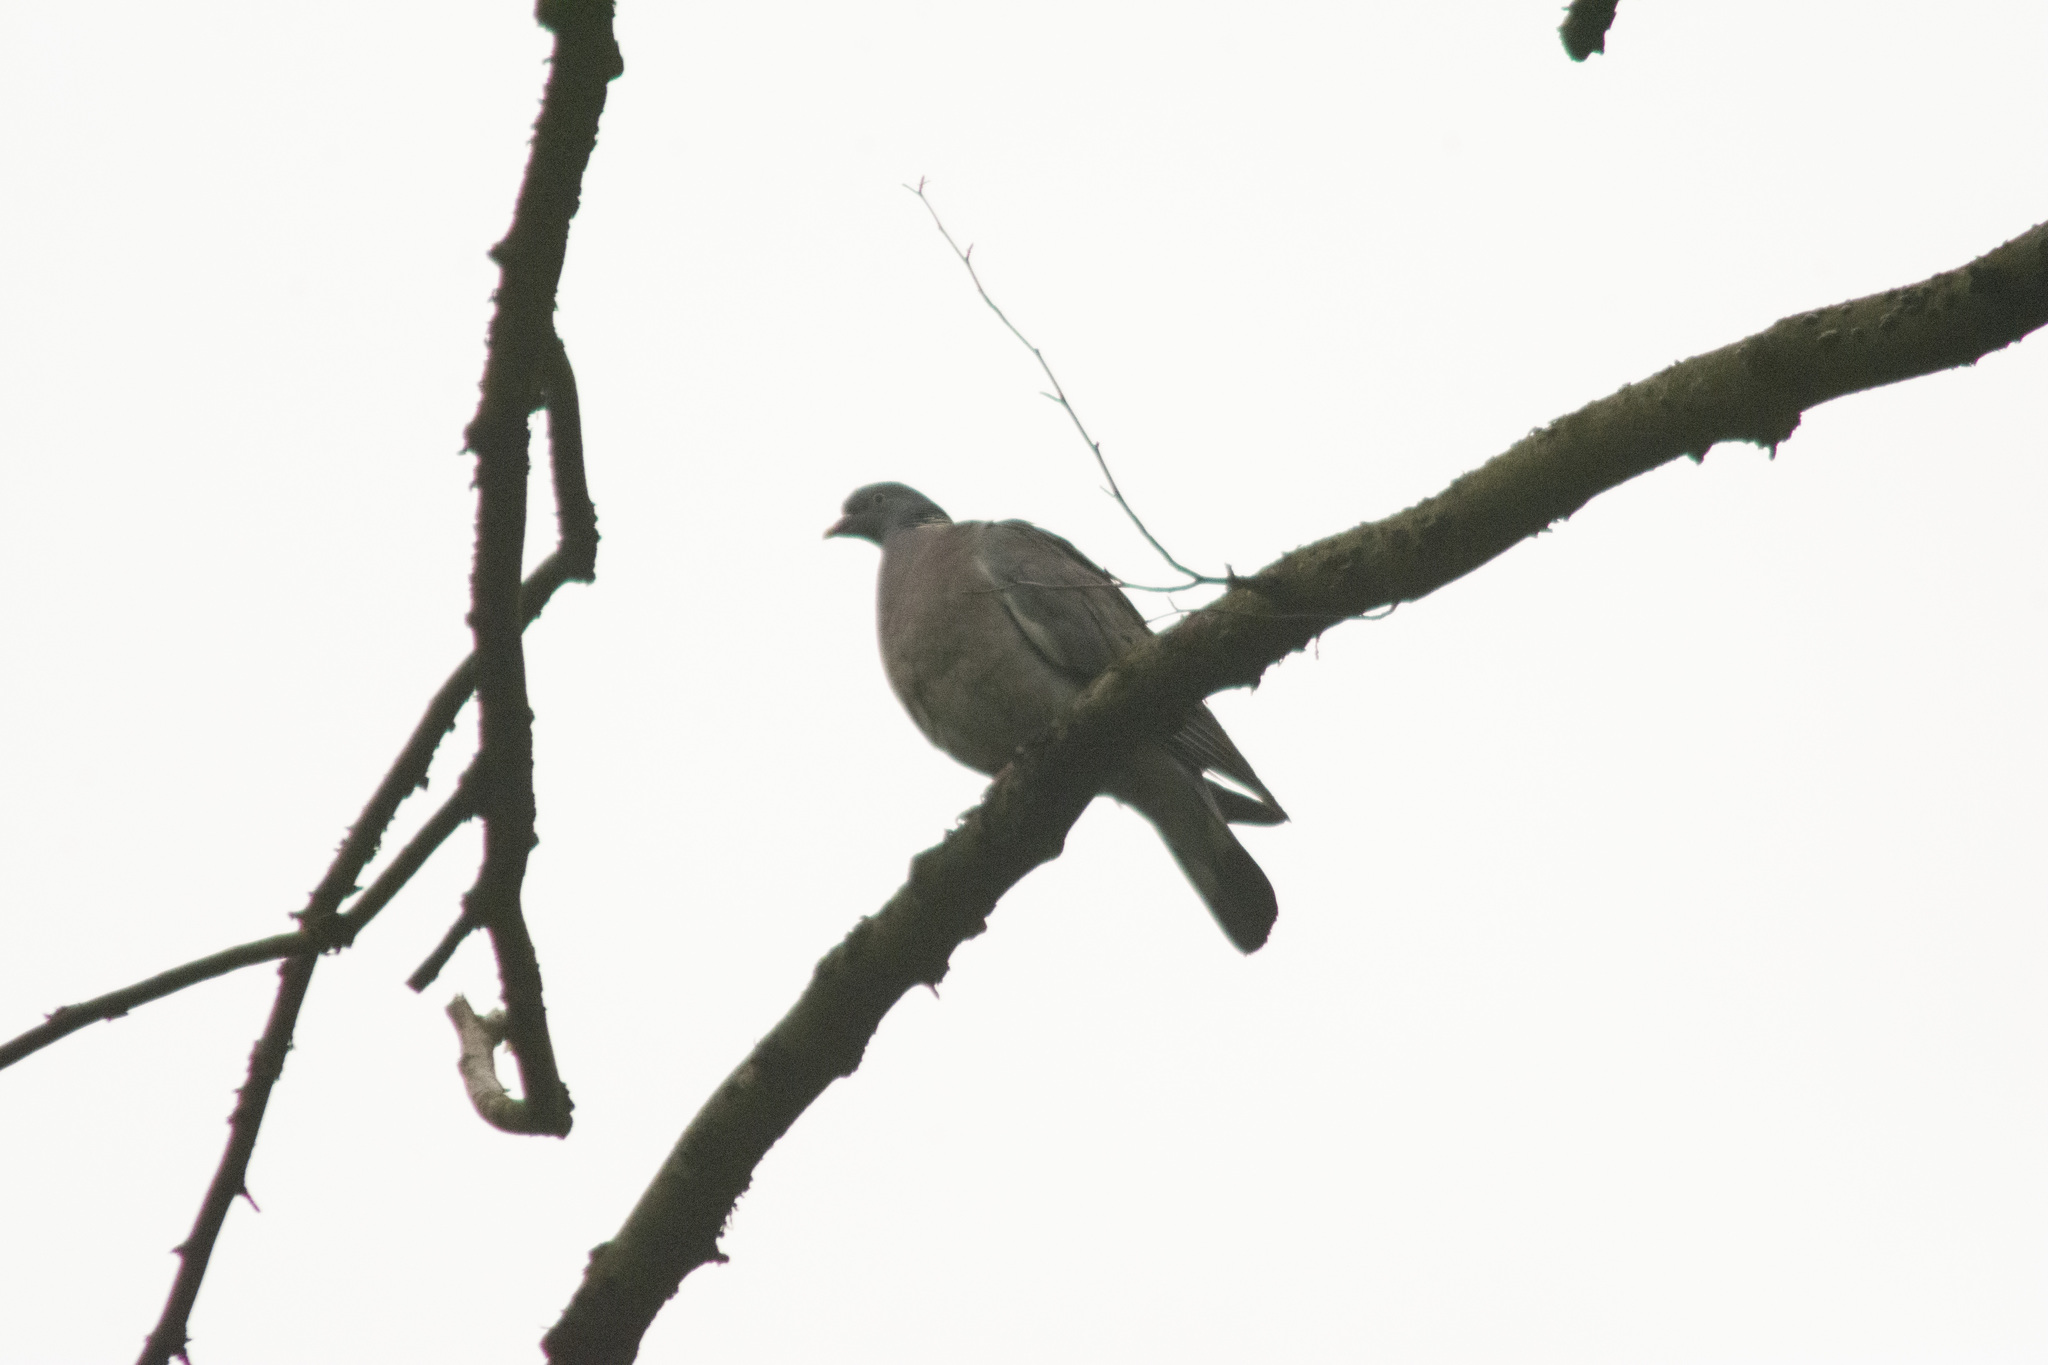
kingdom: Animalia
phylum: Chordata
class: Aves
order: Columbiformes
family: Columbidae
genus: Columba
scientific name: Columba palumbus
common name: Common wood pigeon
